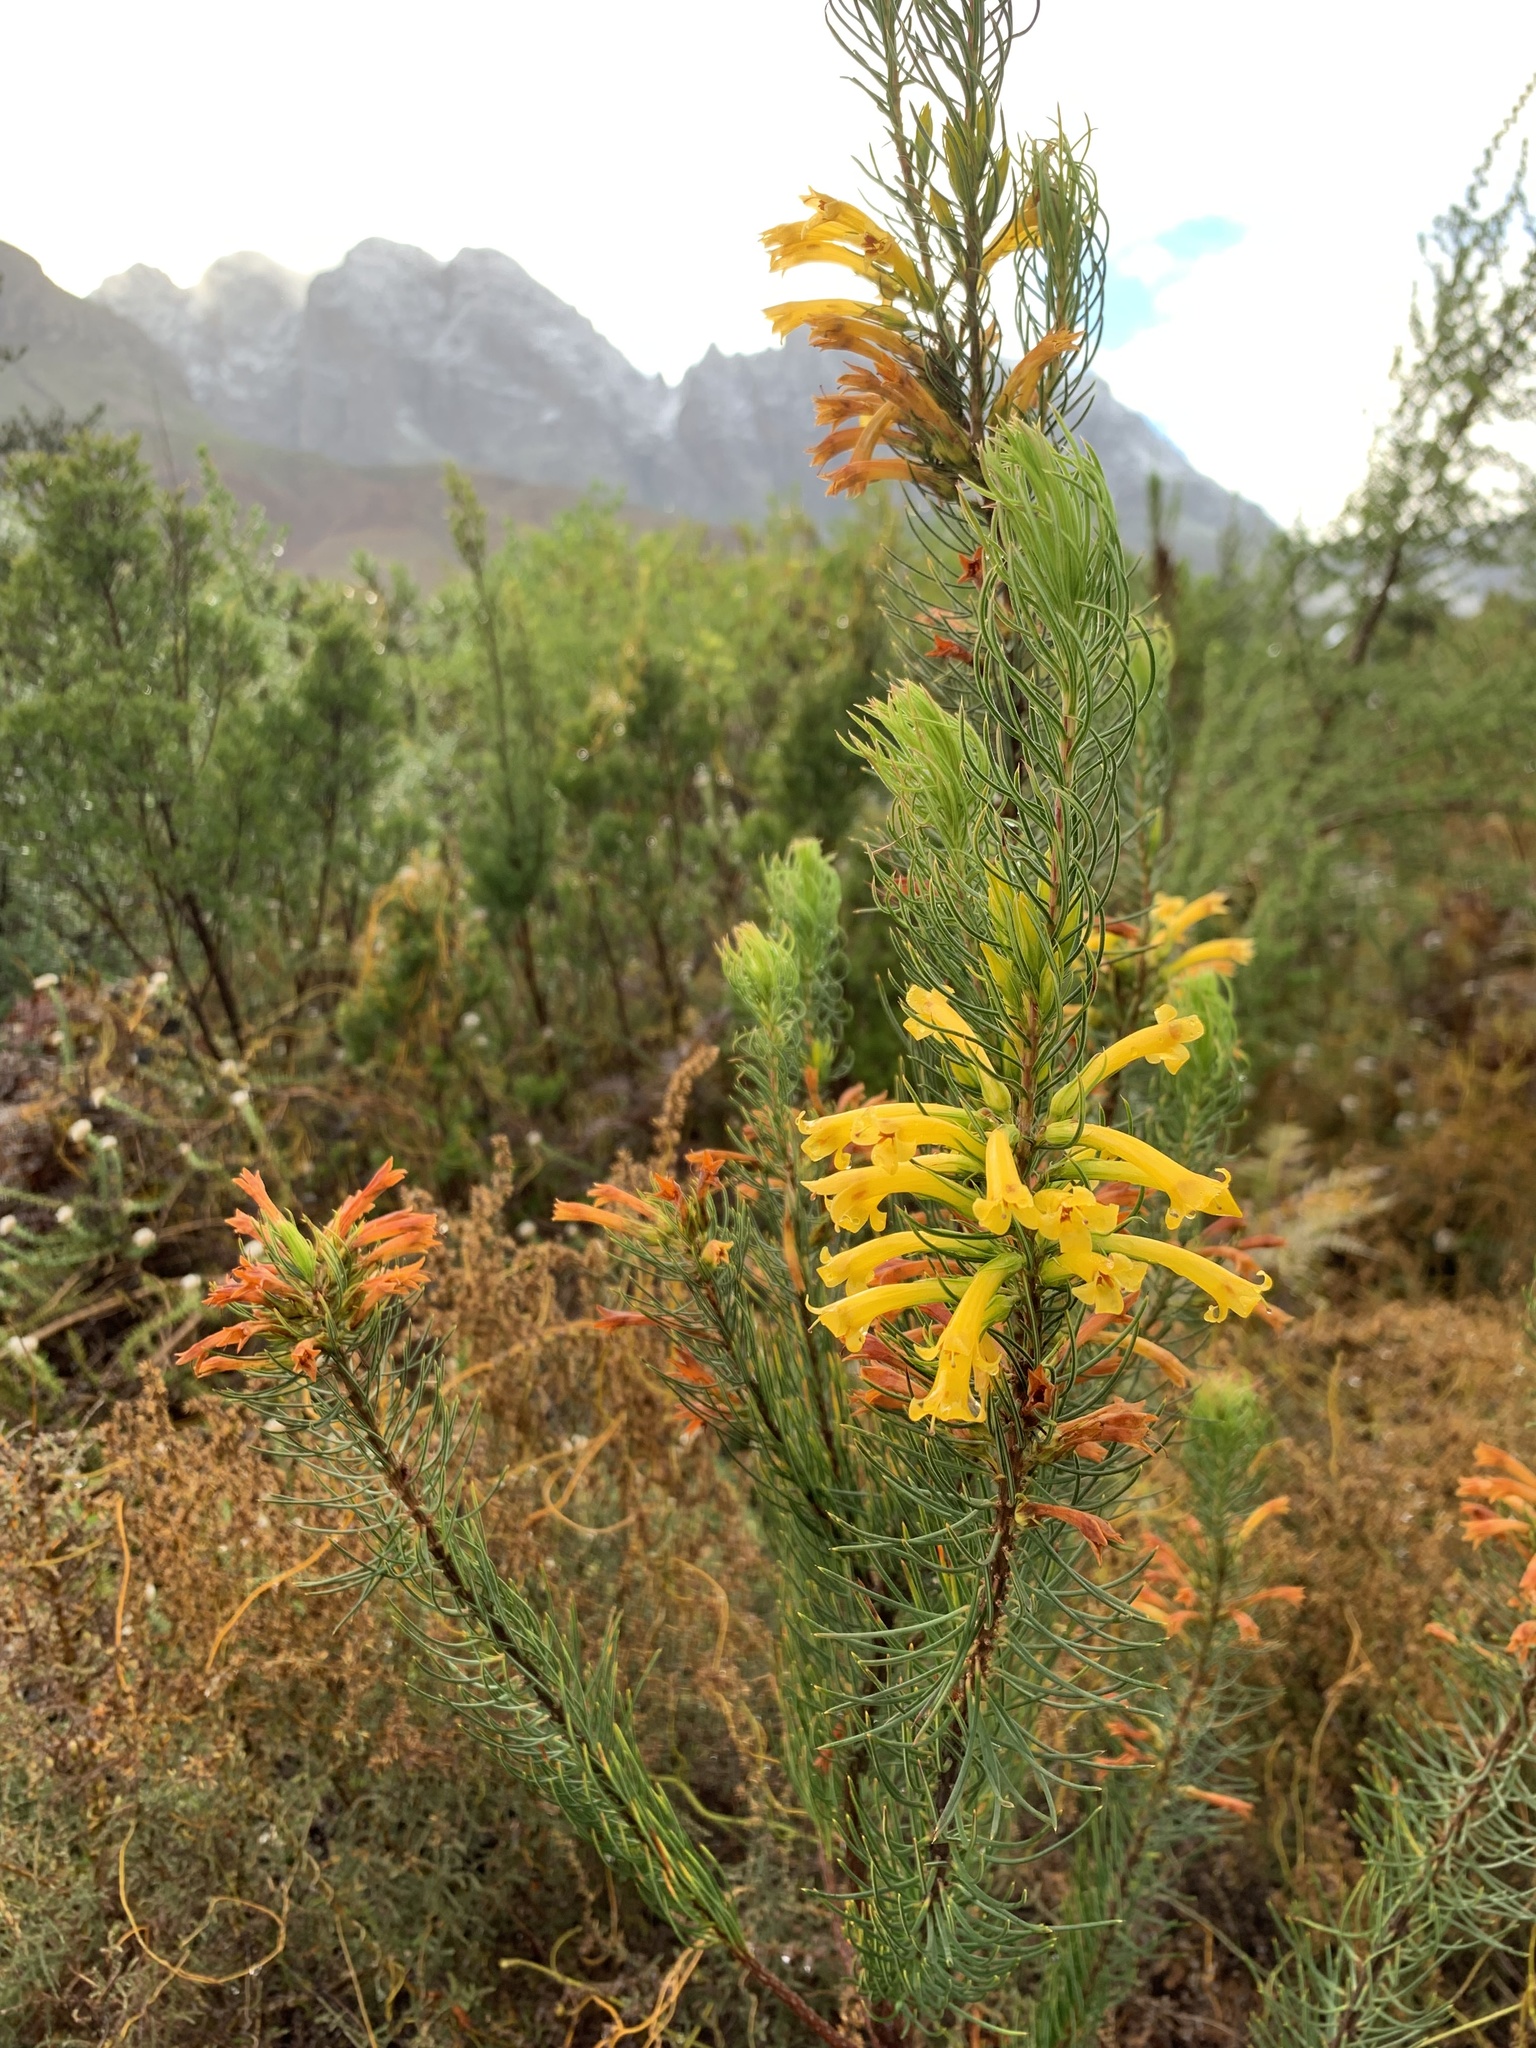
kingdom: Plantae
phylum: Tracheophyta
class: Magnoliopsida
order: Ericales
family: Ericaceae
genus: Erica
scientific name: Erica grandiflora
